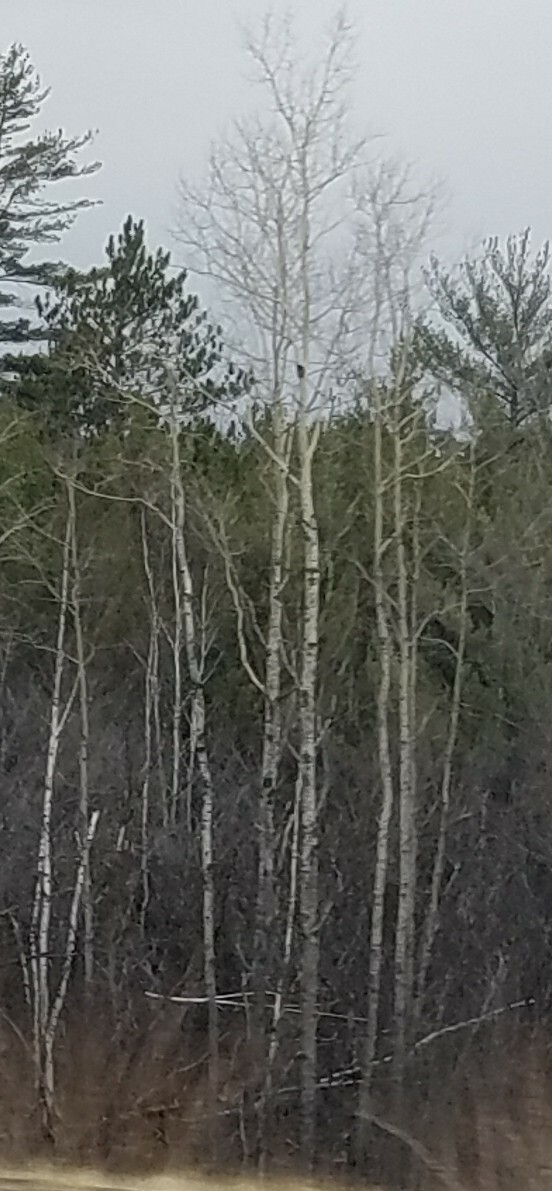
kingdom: Plantae
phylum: Tracheophyta
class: Magnoliopsida
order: Malpighiales
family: Salicaceae
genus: Populus
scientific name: Populus tremuloides
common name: Quaking aspen
